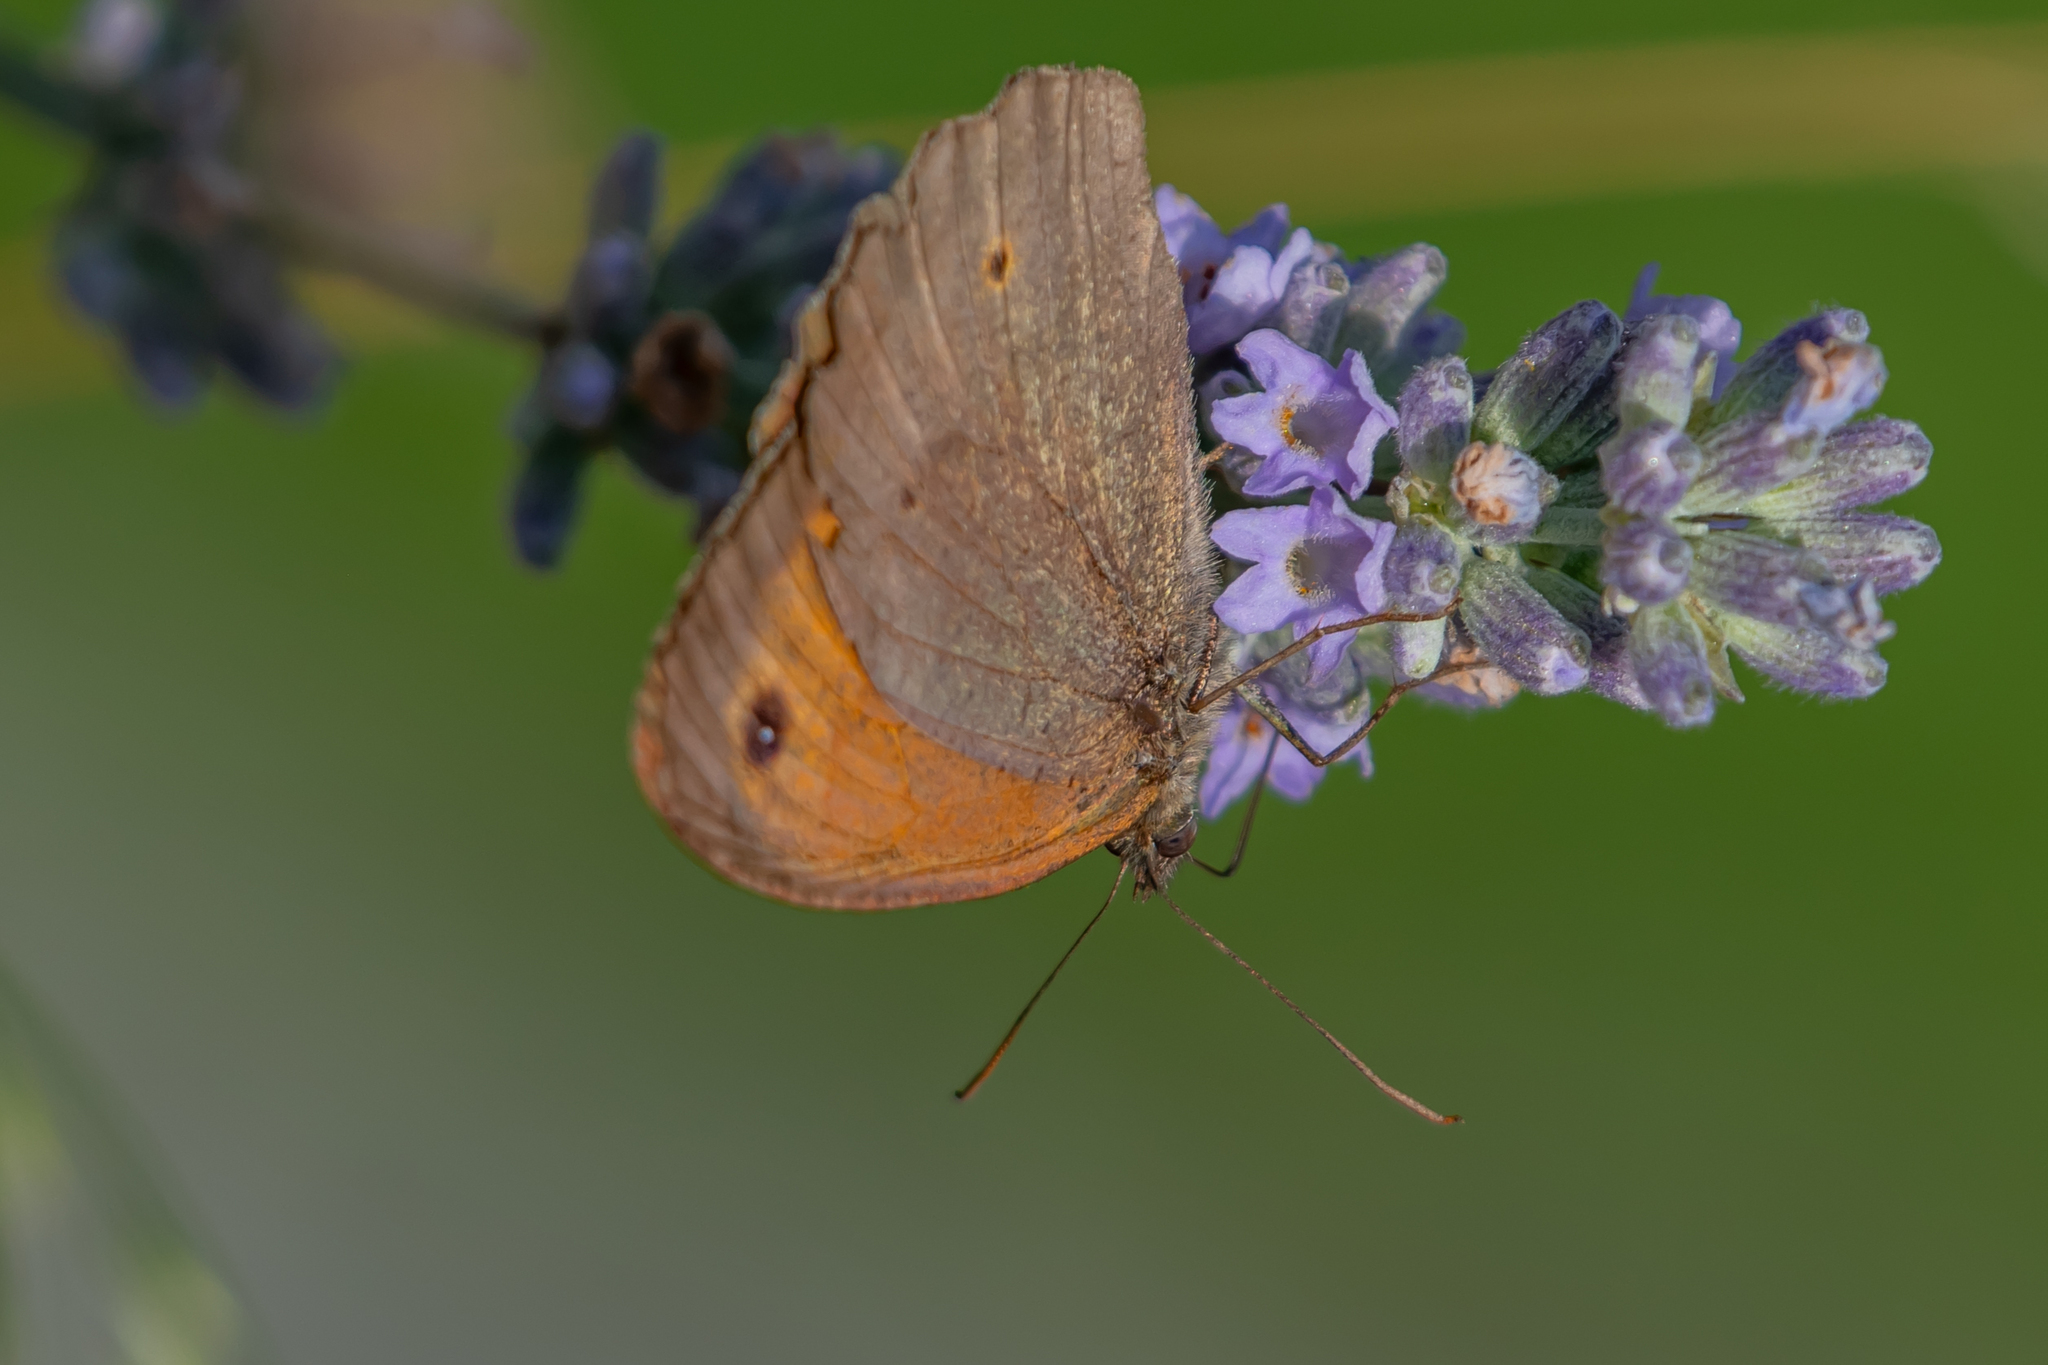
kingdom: Animalia
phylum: Arthropoda
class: Insecta
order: Lepidoptera
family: Nymphalidae
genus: Maniola
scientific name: Maniola jurtina
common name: Meadow brown
